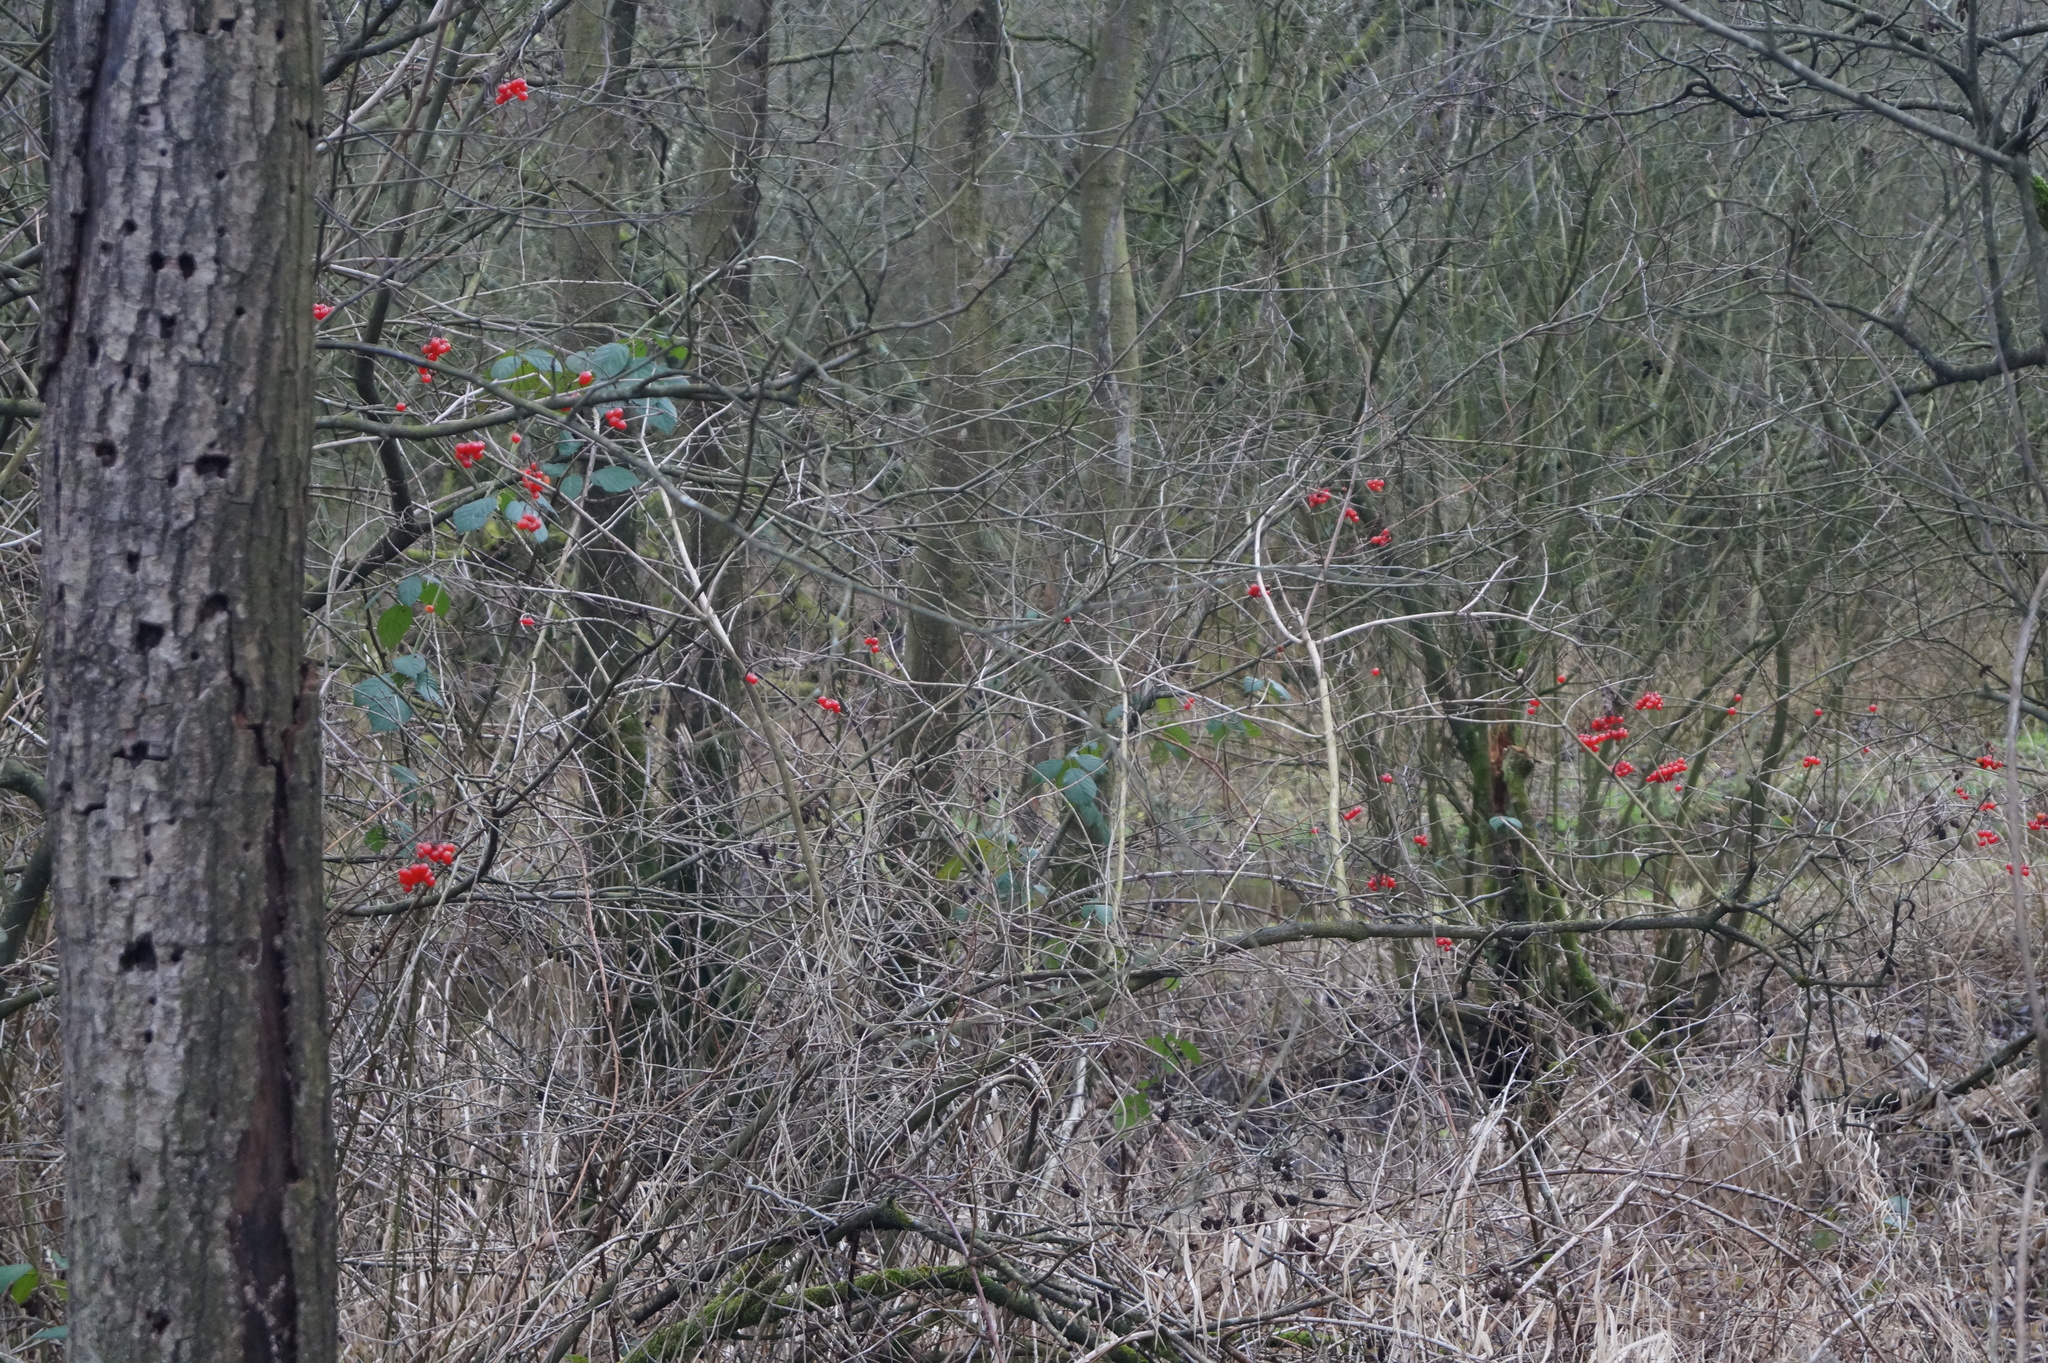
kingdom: Plantae
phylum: Tracheophyta
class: Magnoliopsida
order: Dipsacales
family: Viburnaceae
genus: Viburnum
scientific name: Viburnum opulus
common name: Guelder-rose
